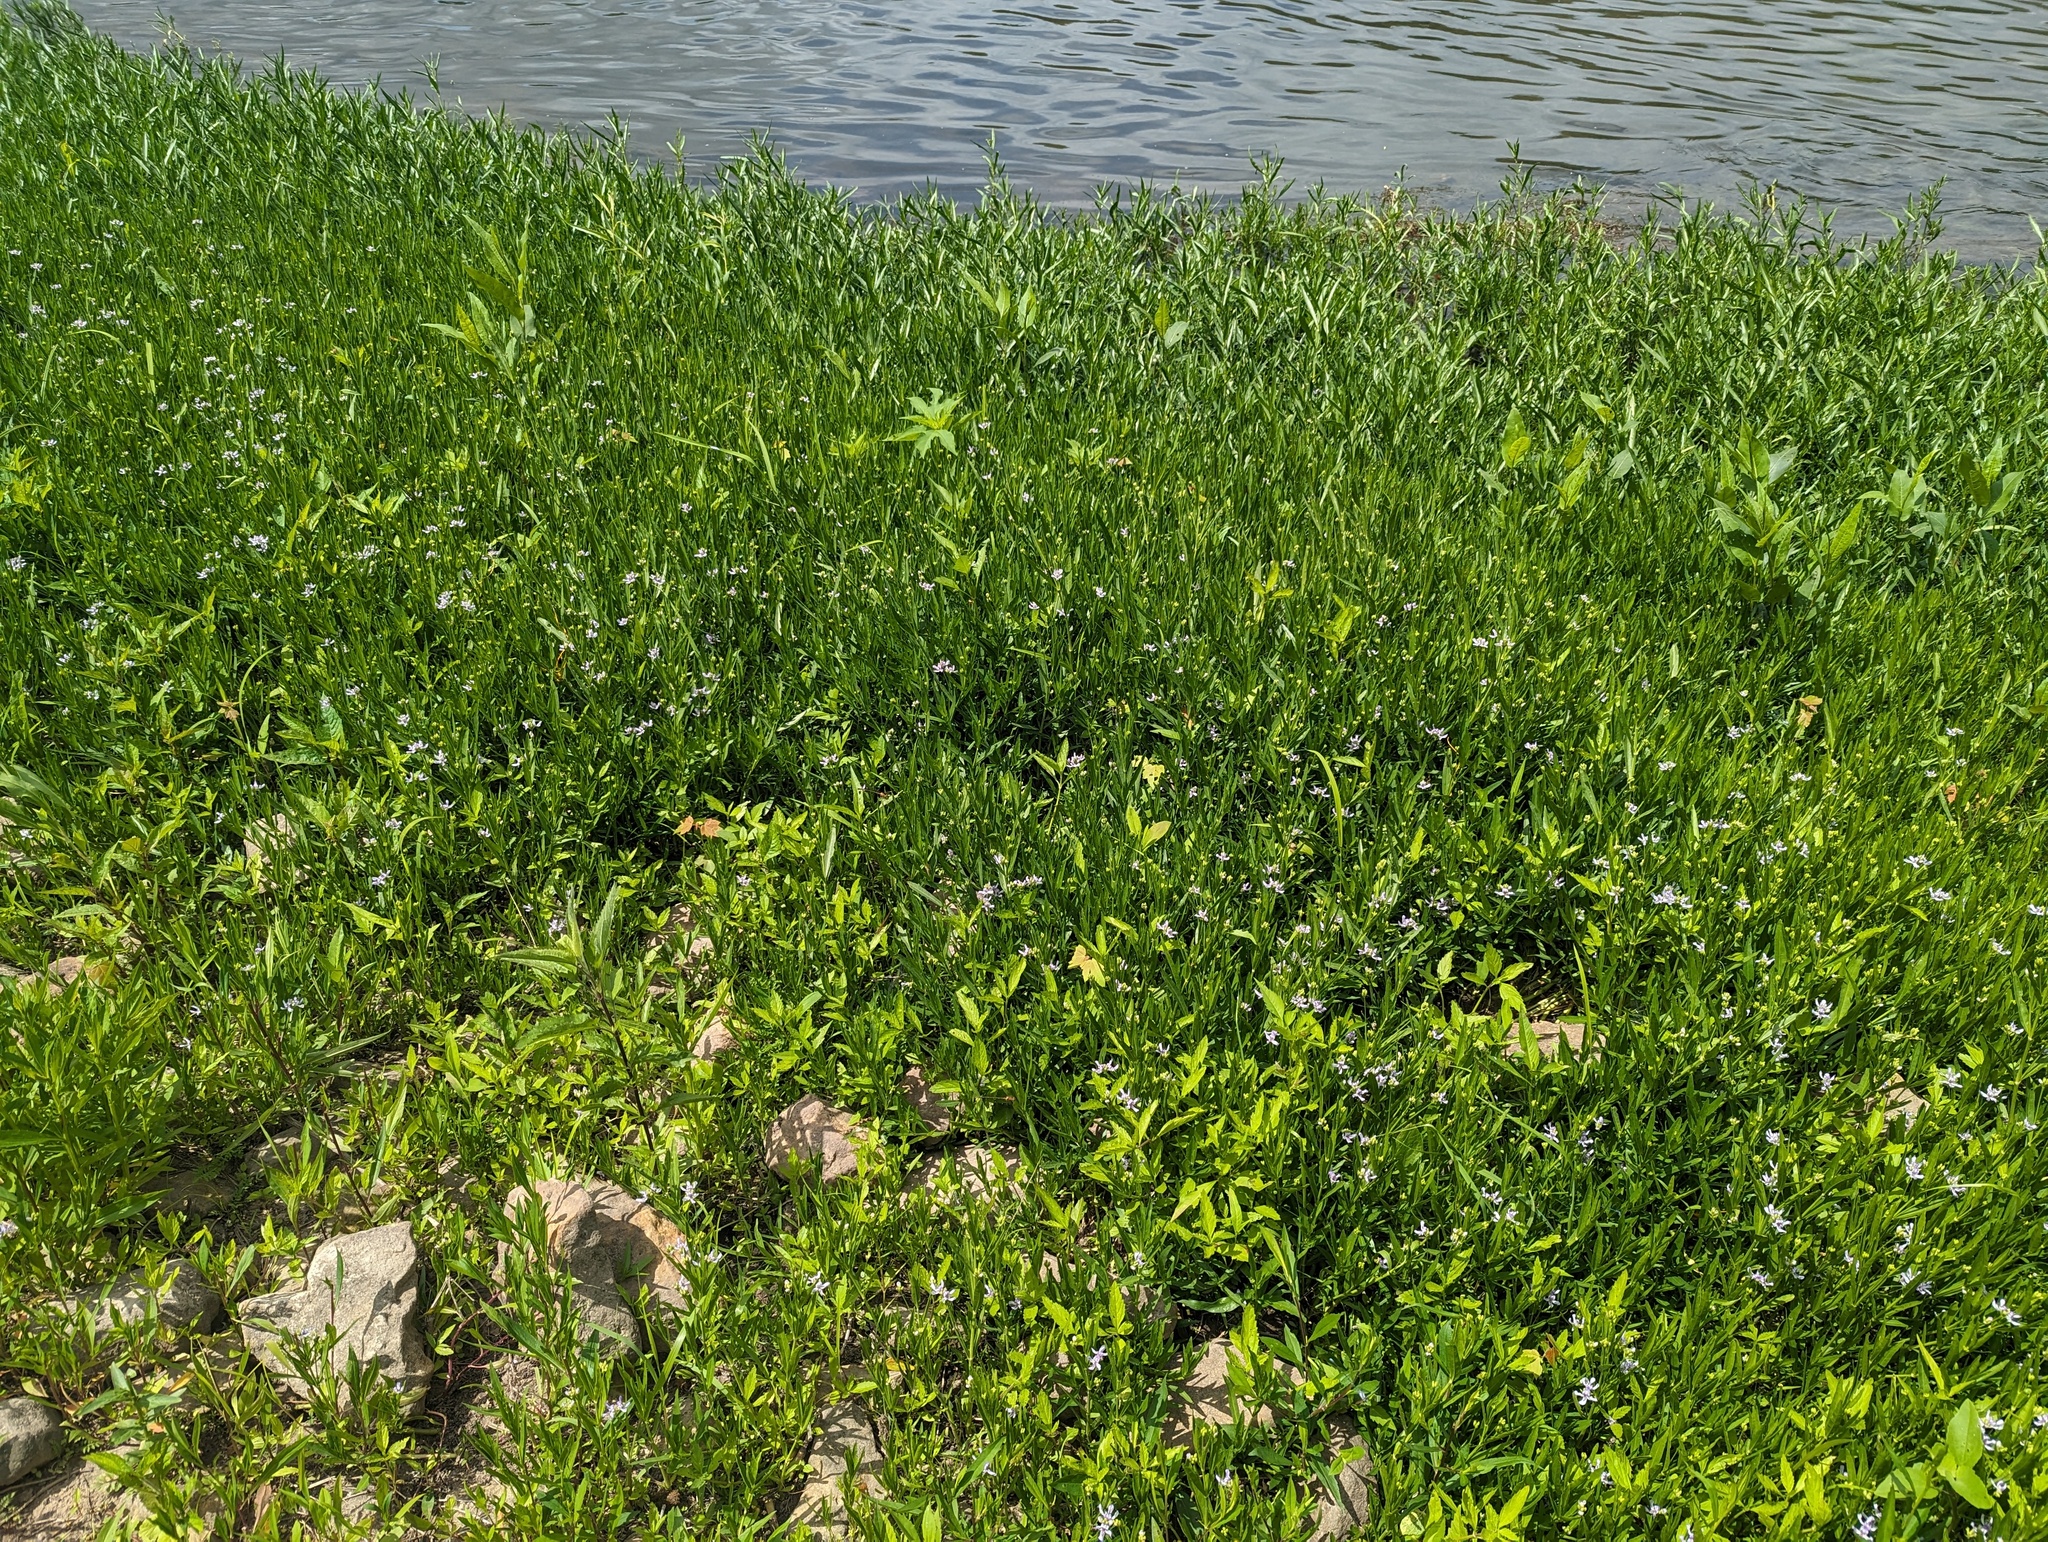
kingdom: Plantae
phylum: Tracheophyta
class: Magnoliopsida
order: Lamiales
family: Acanthaceae
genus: Dianthera
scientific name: Dianthera americana
